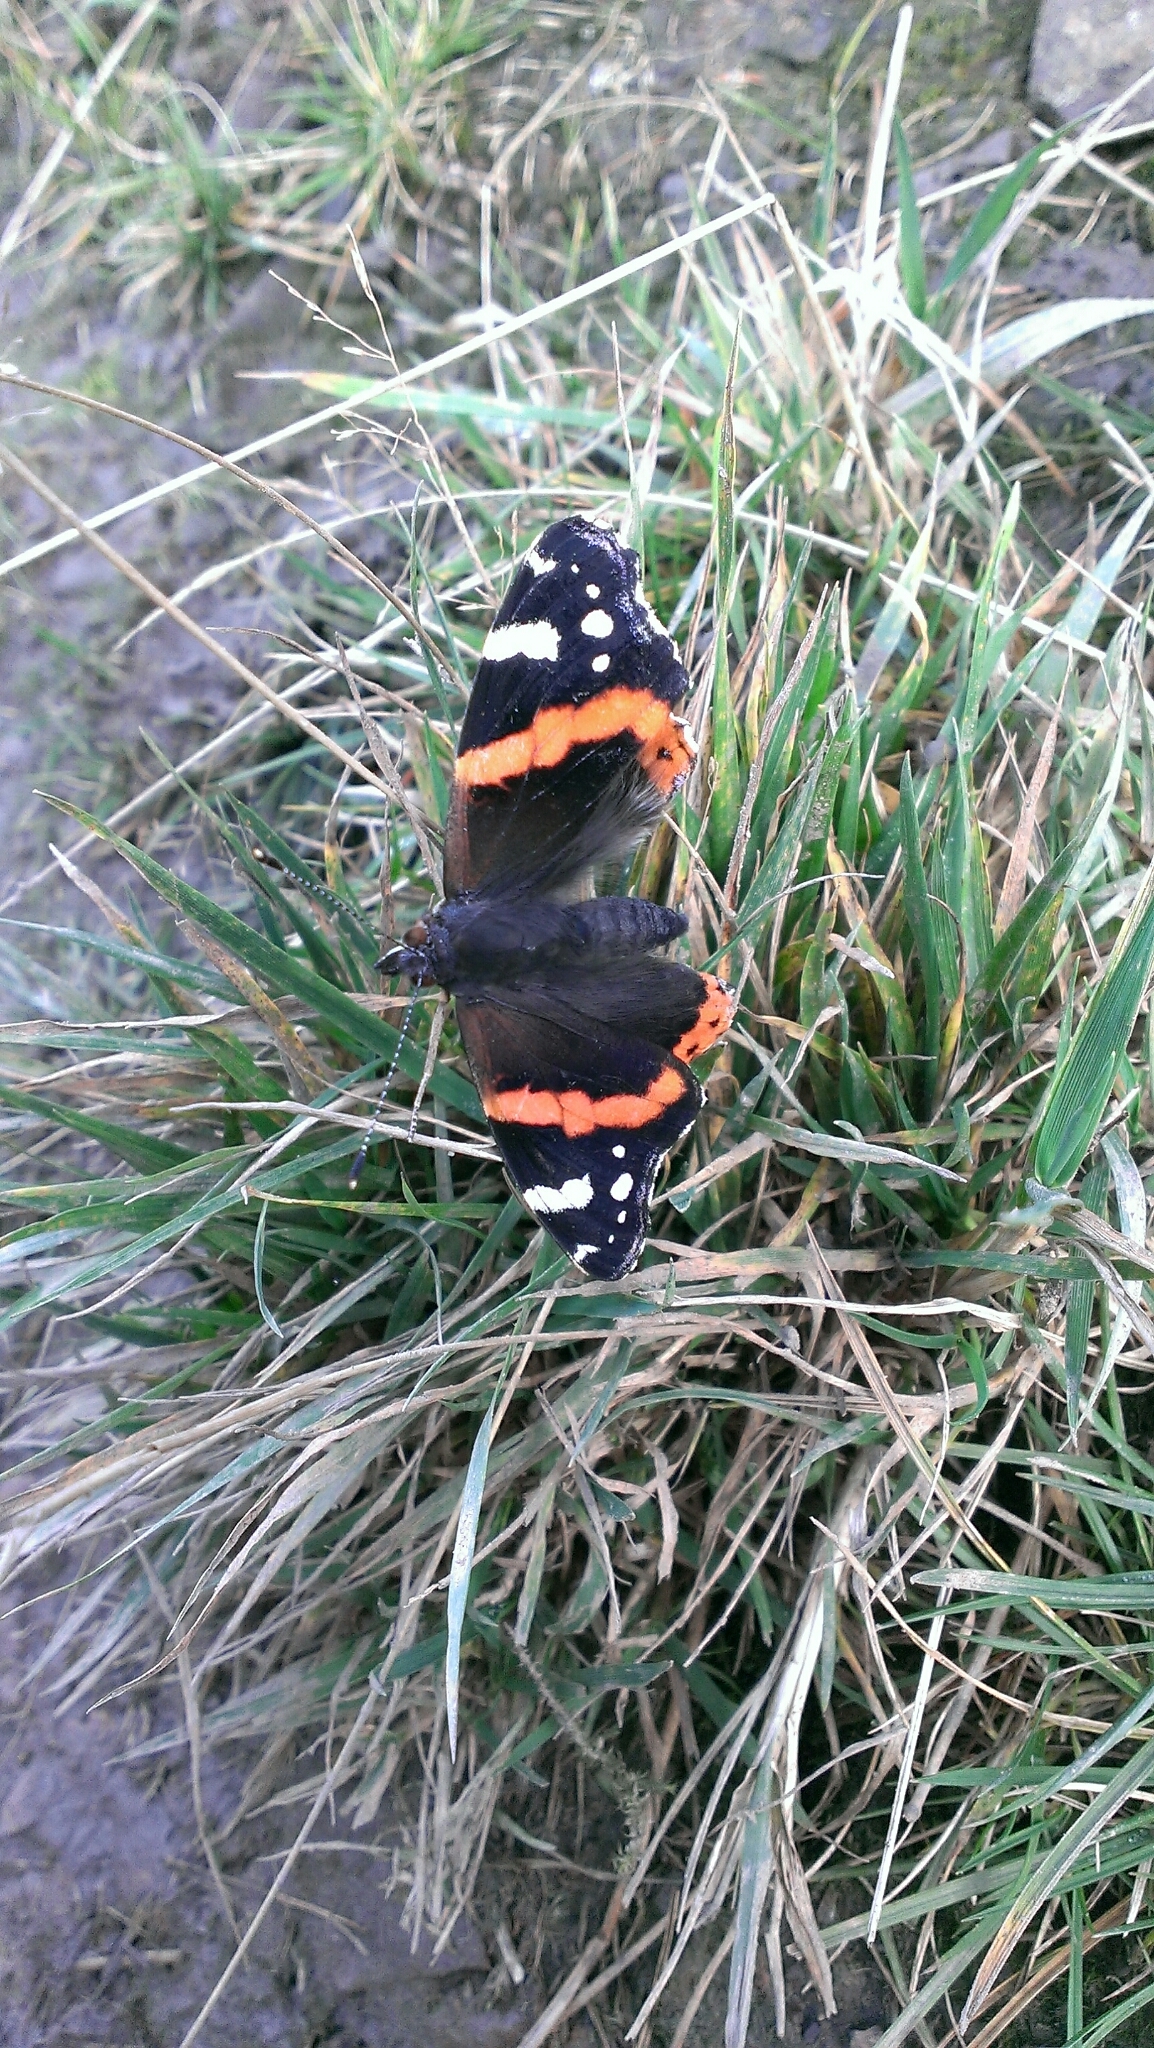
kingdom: Animalia
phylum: Arthropoda
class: Insecta
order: Lepidoptera
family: Nymphalidae
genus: Vanessa
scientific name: Vanessa atalanta
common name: Red admiral
